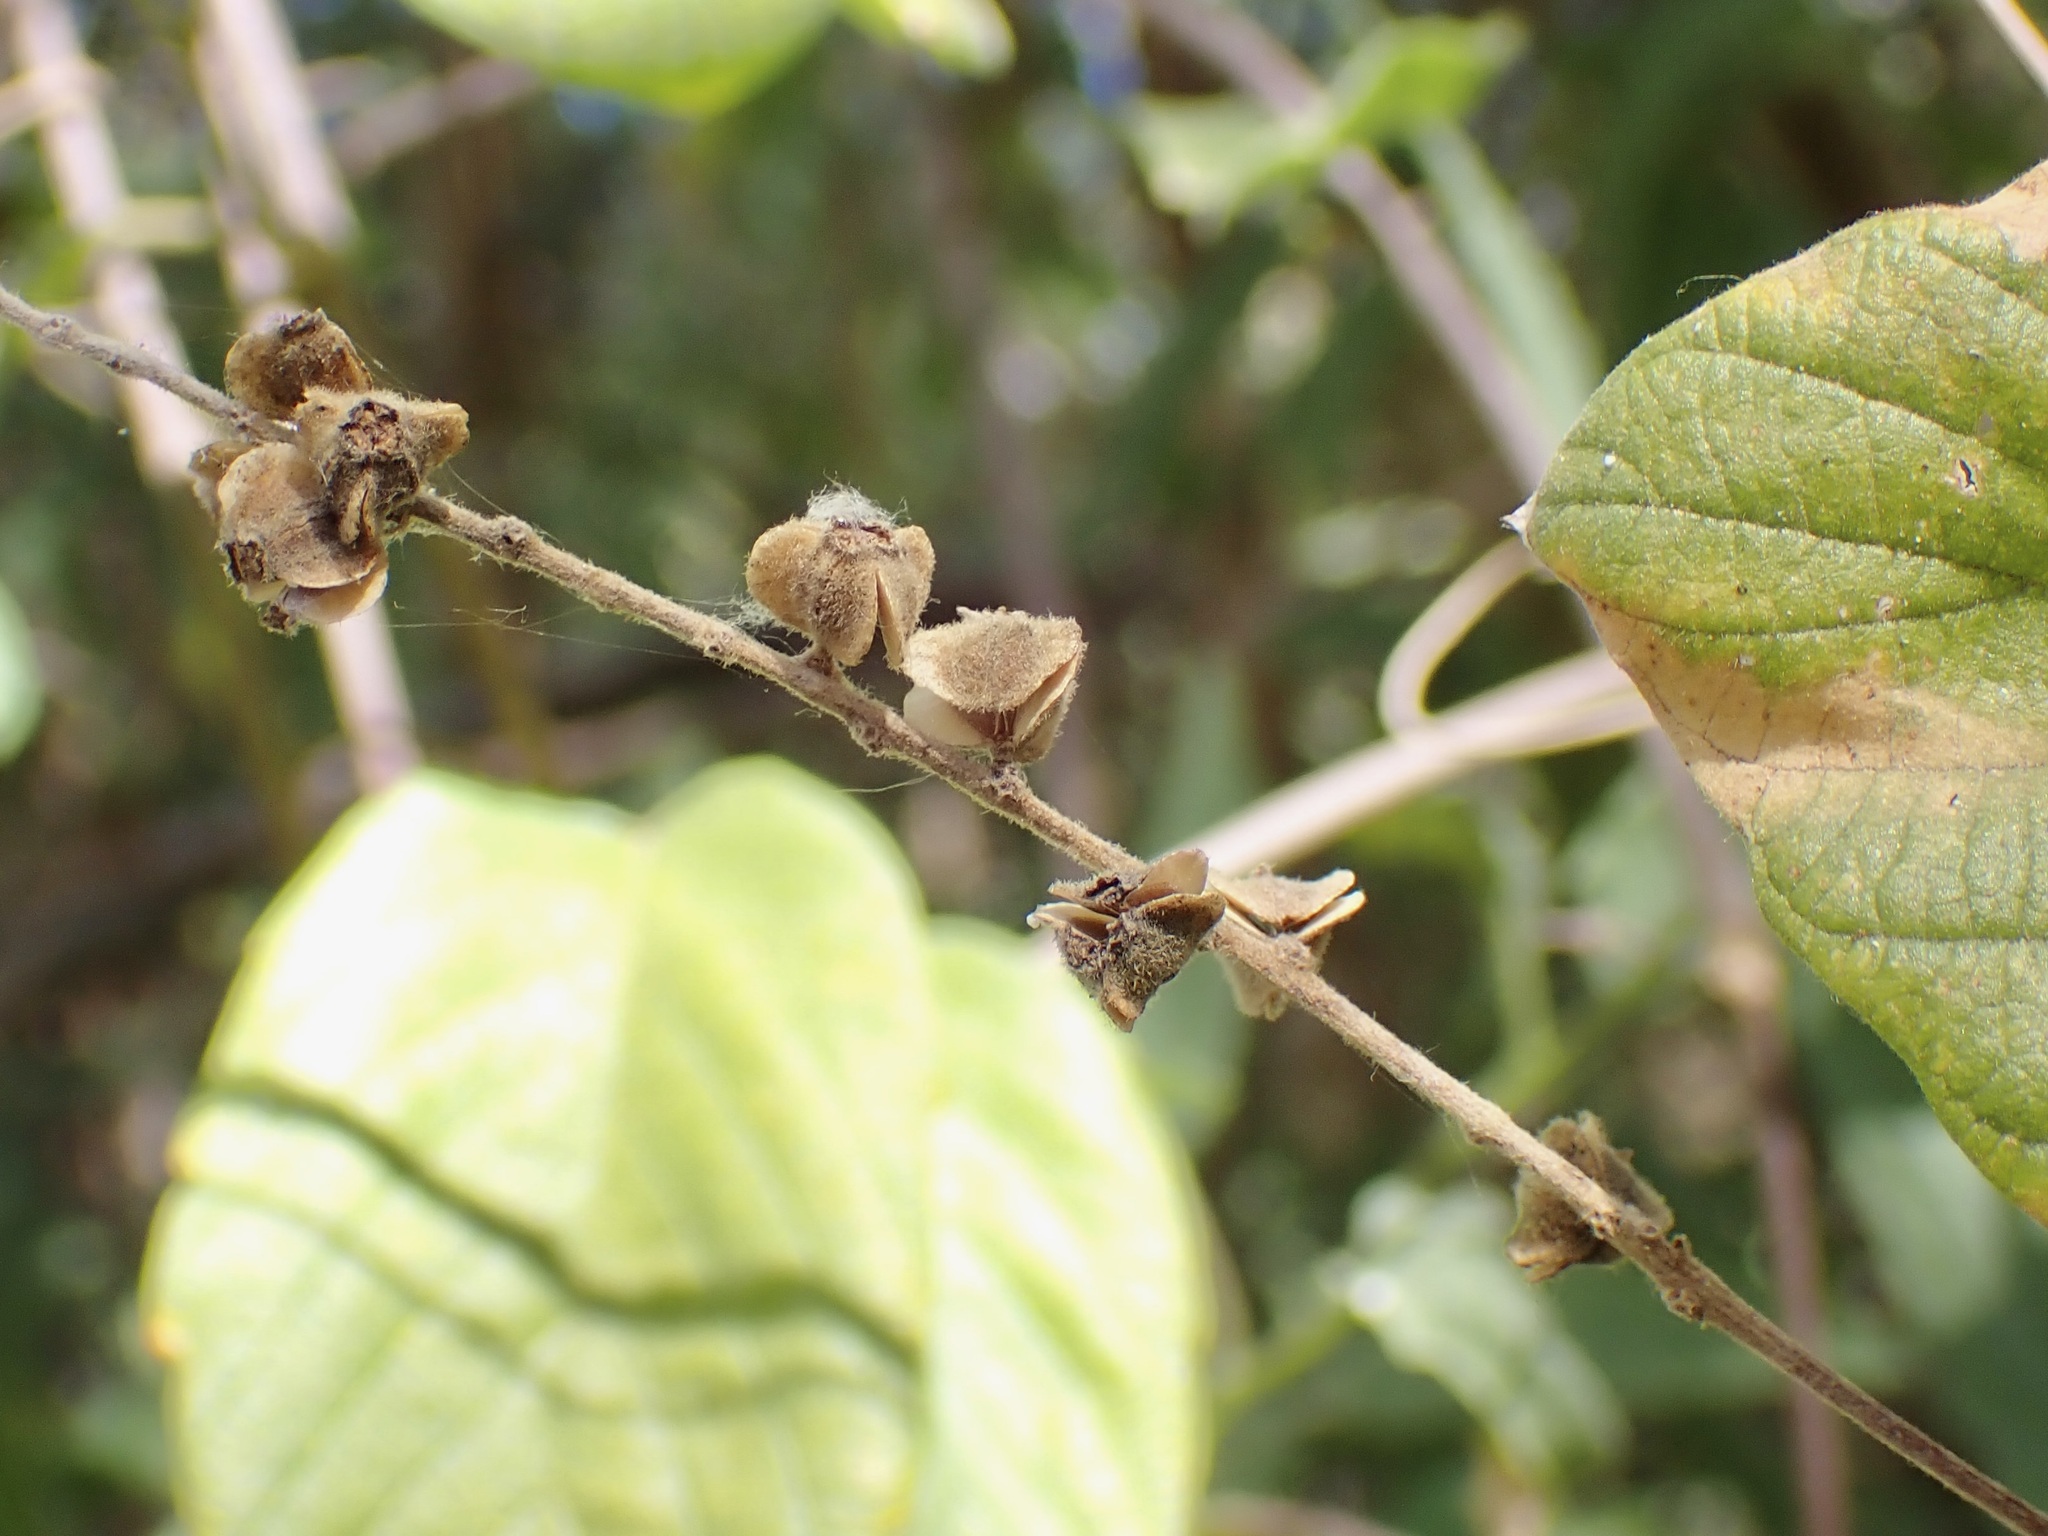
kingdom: Plantae
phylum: Tracheophyta
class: Magnoliopsida
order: Rosales
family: Rhamnaceae
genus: Gouania
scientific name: Gouania rosei
